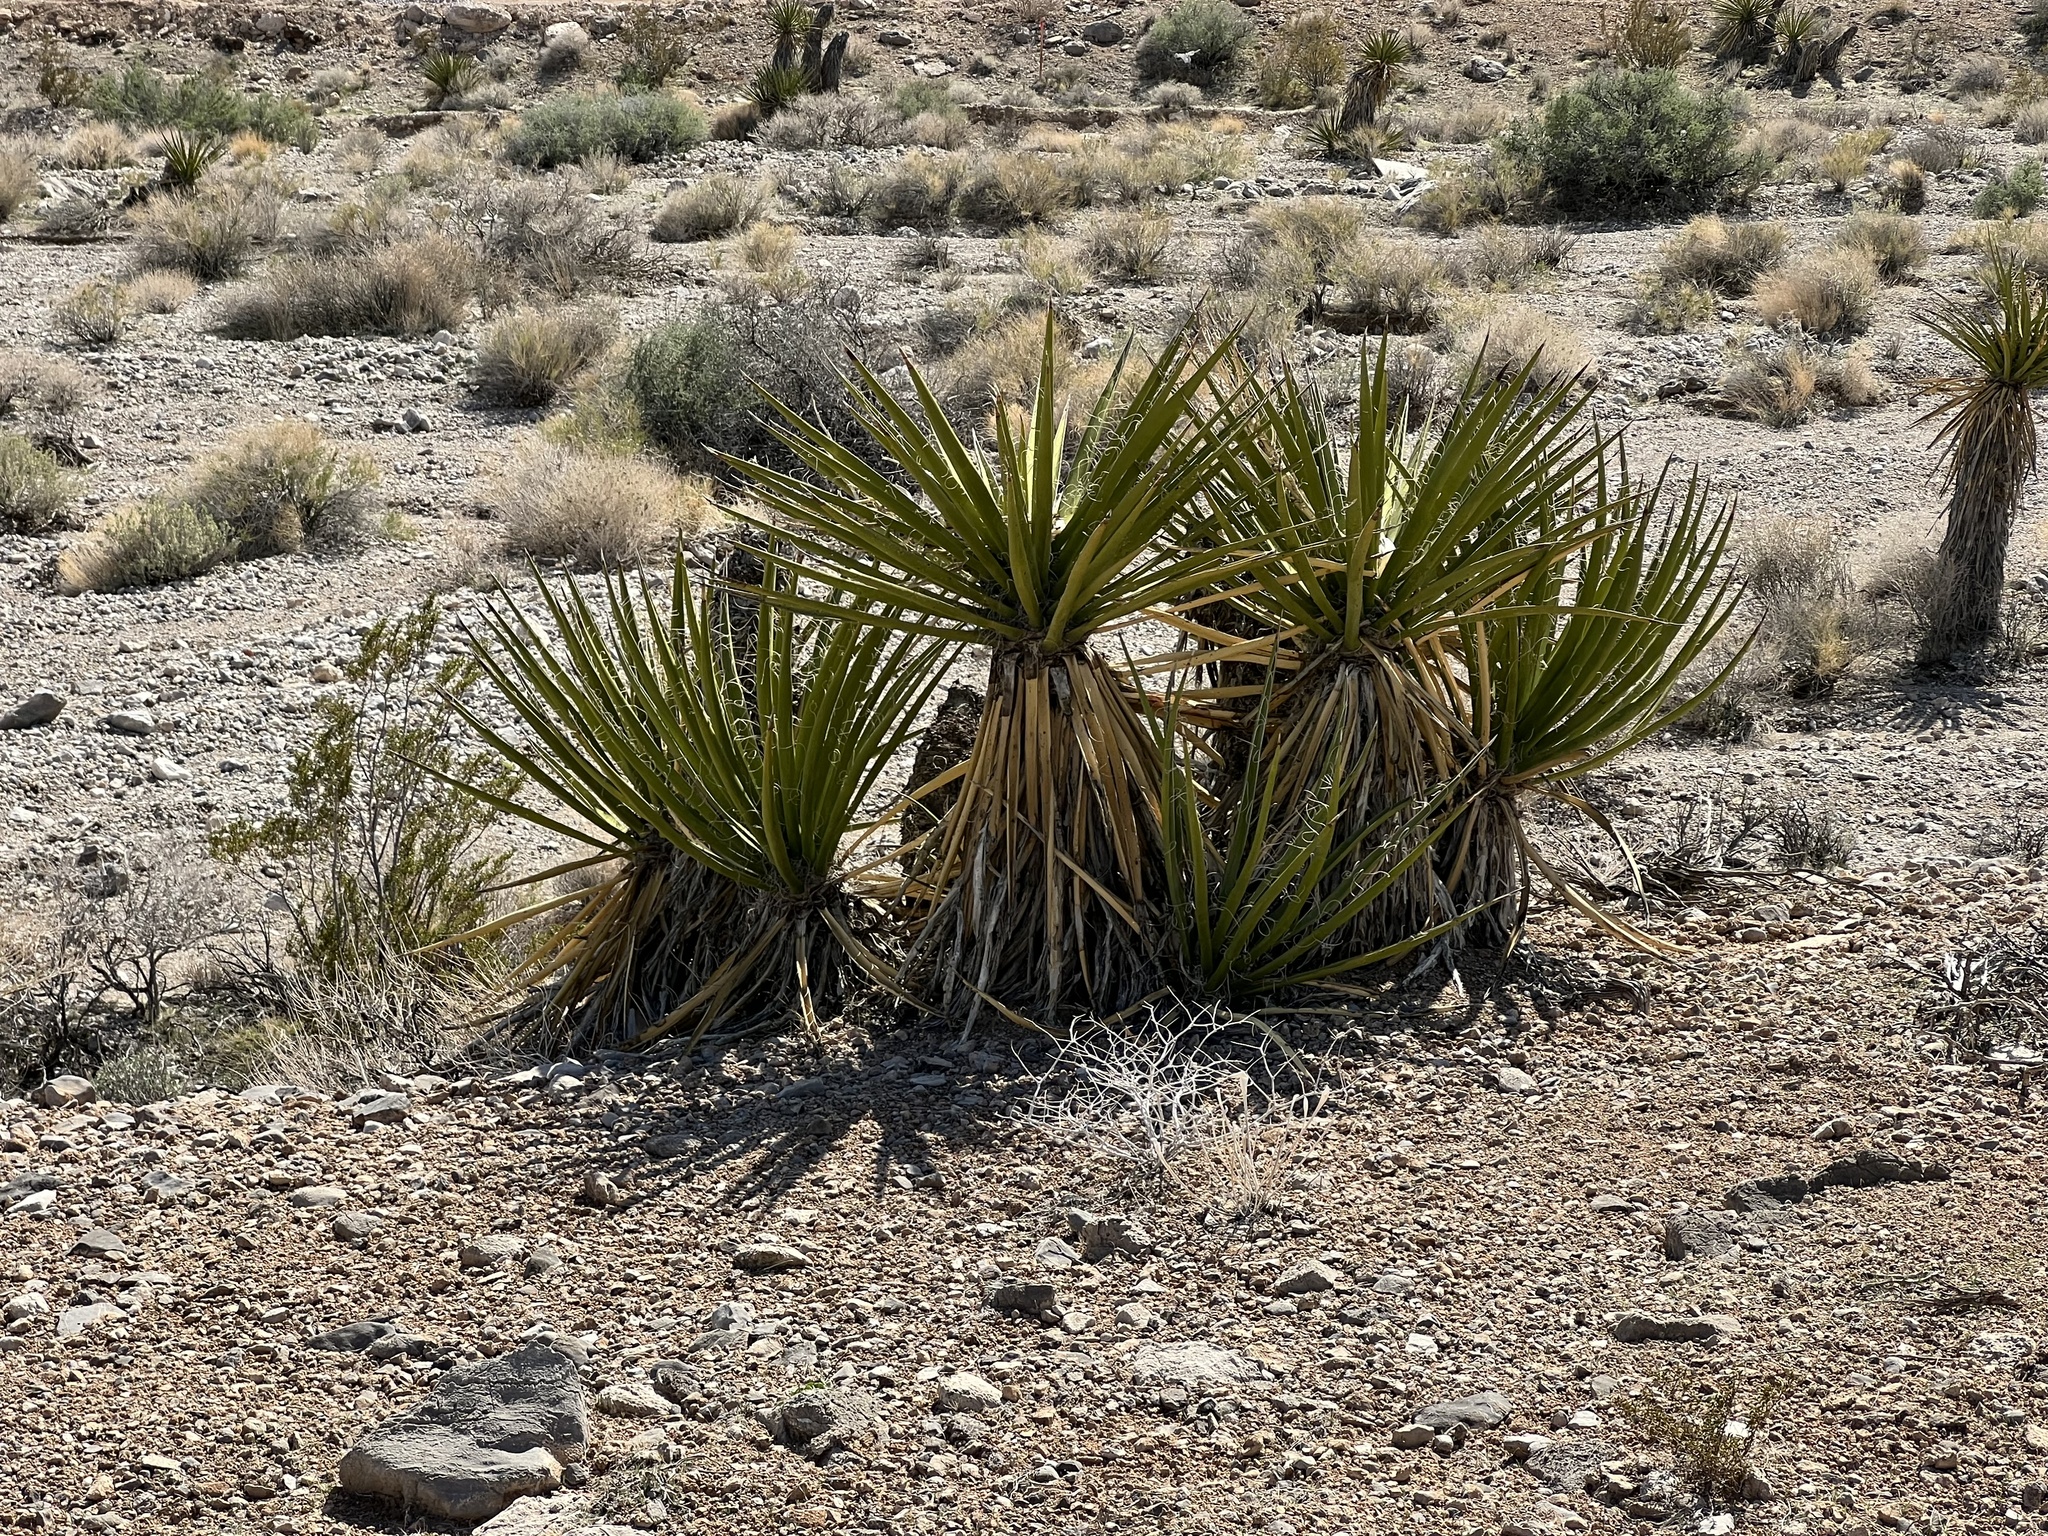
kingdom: Plantae
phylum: Tracheophyta
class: Liliopsida
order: Asparagales
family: Asparagaceae
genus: Yucca
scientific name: Yucca schidigera
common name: Mojave yucca
